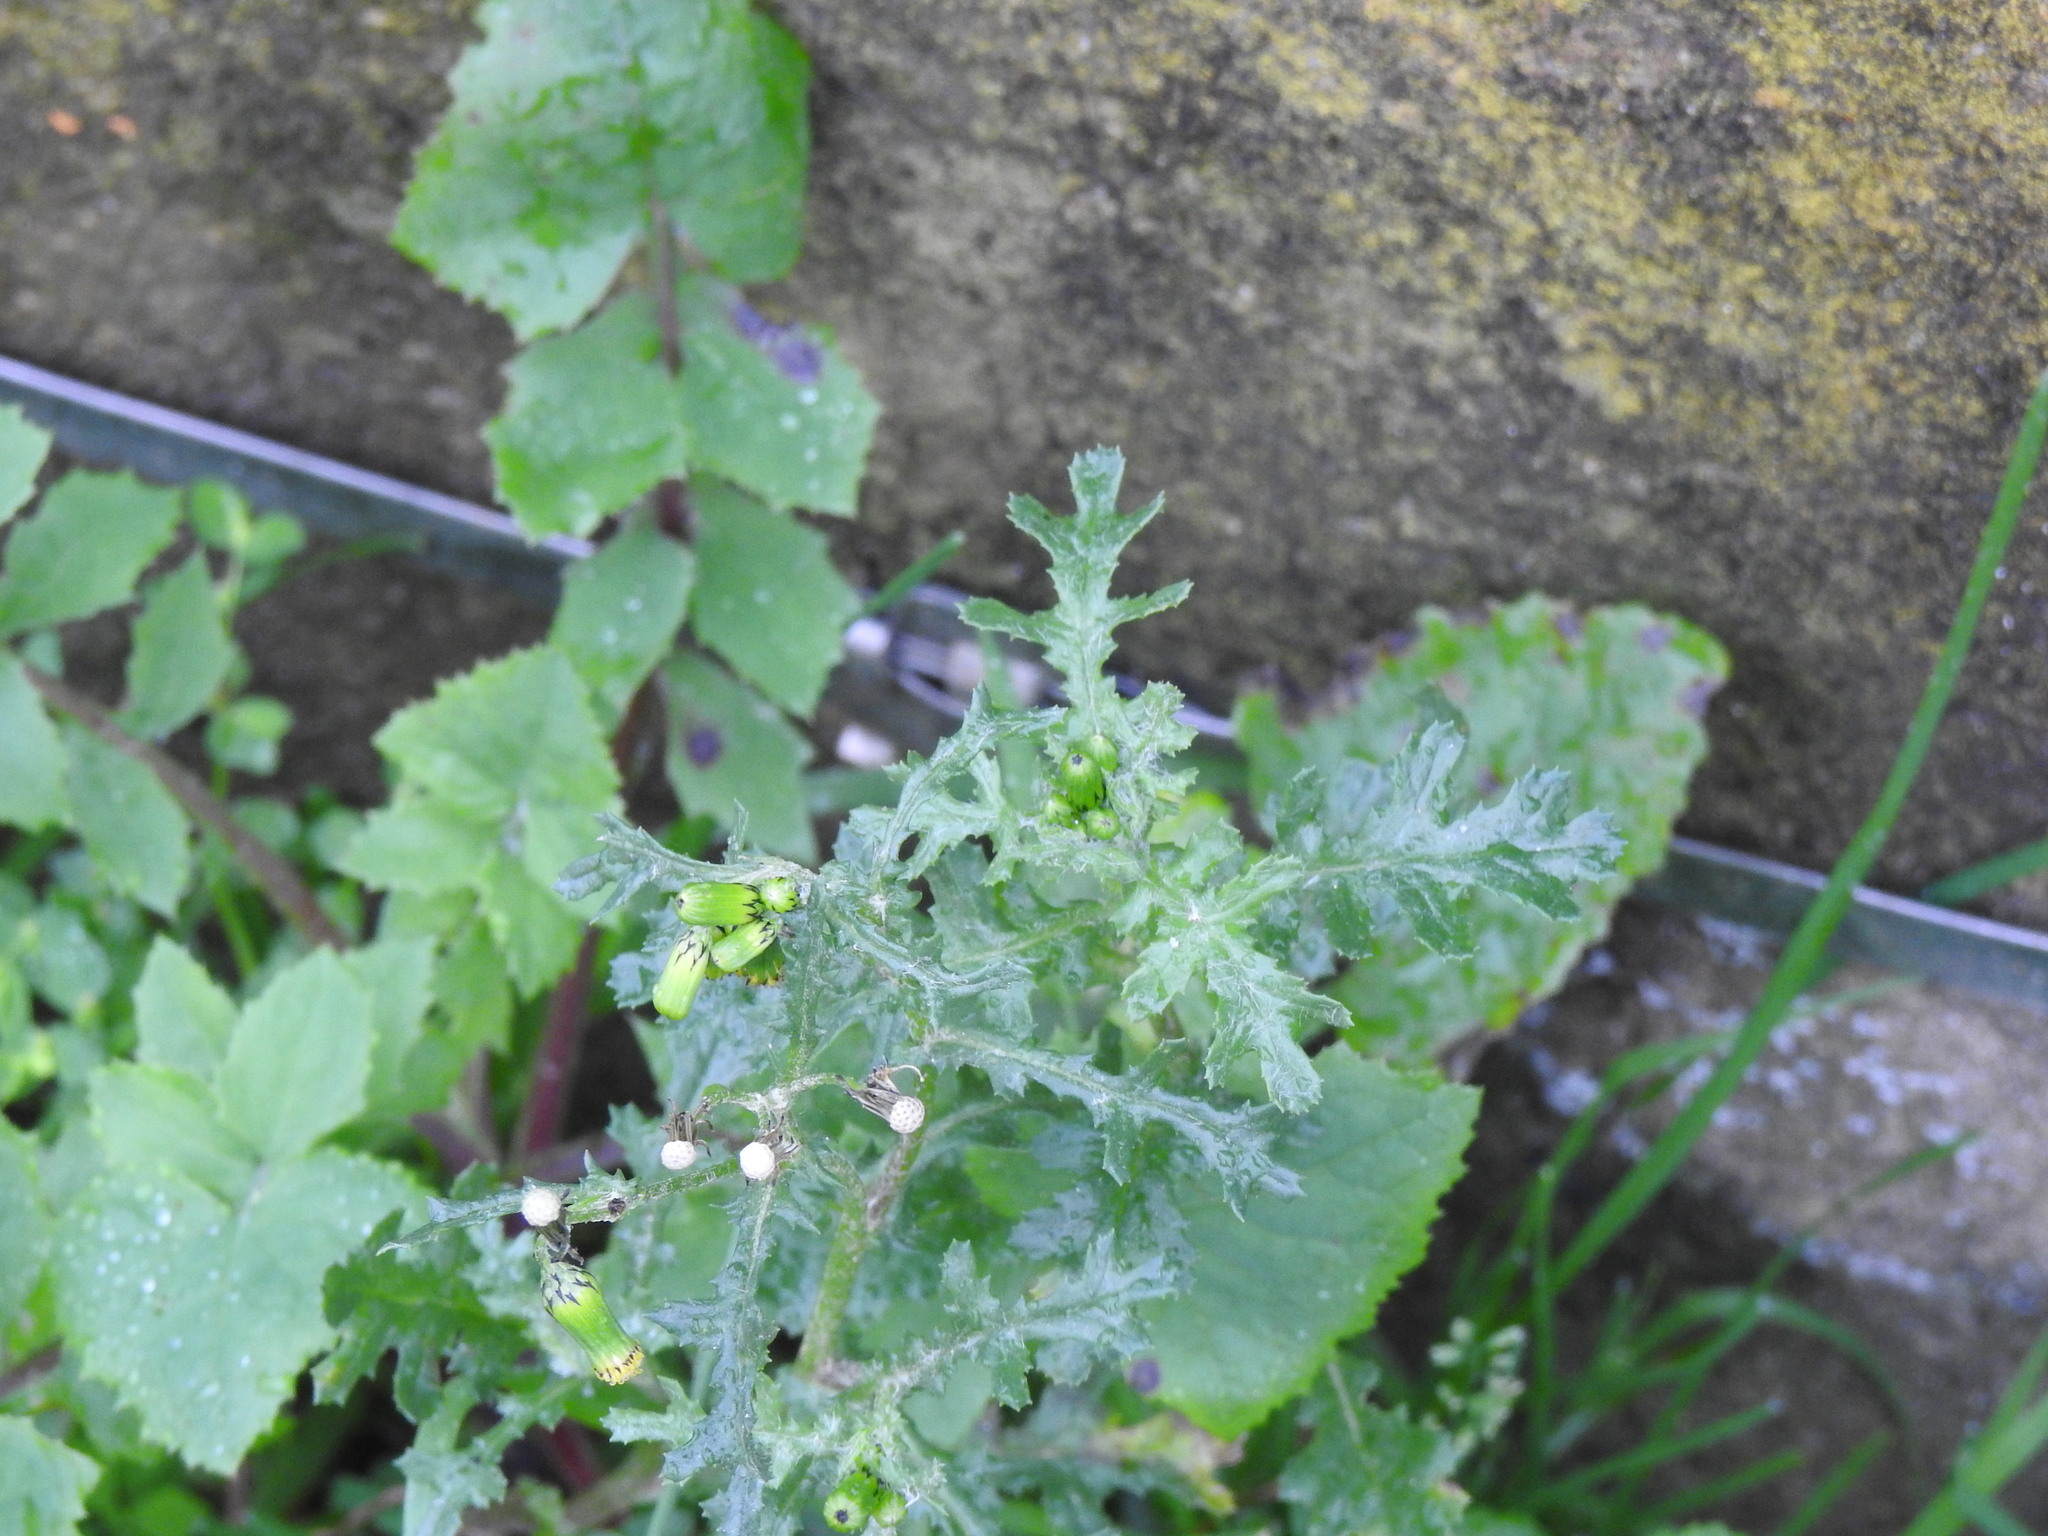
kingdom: Plantae
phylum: Tracheophyta
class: Magnoliopsida
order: Asterales
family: Asteraceae
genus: Senecio
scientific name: Senecio vulgaris
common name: Old-man-in-the-spring
